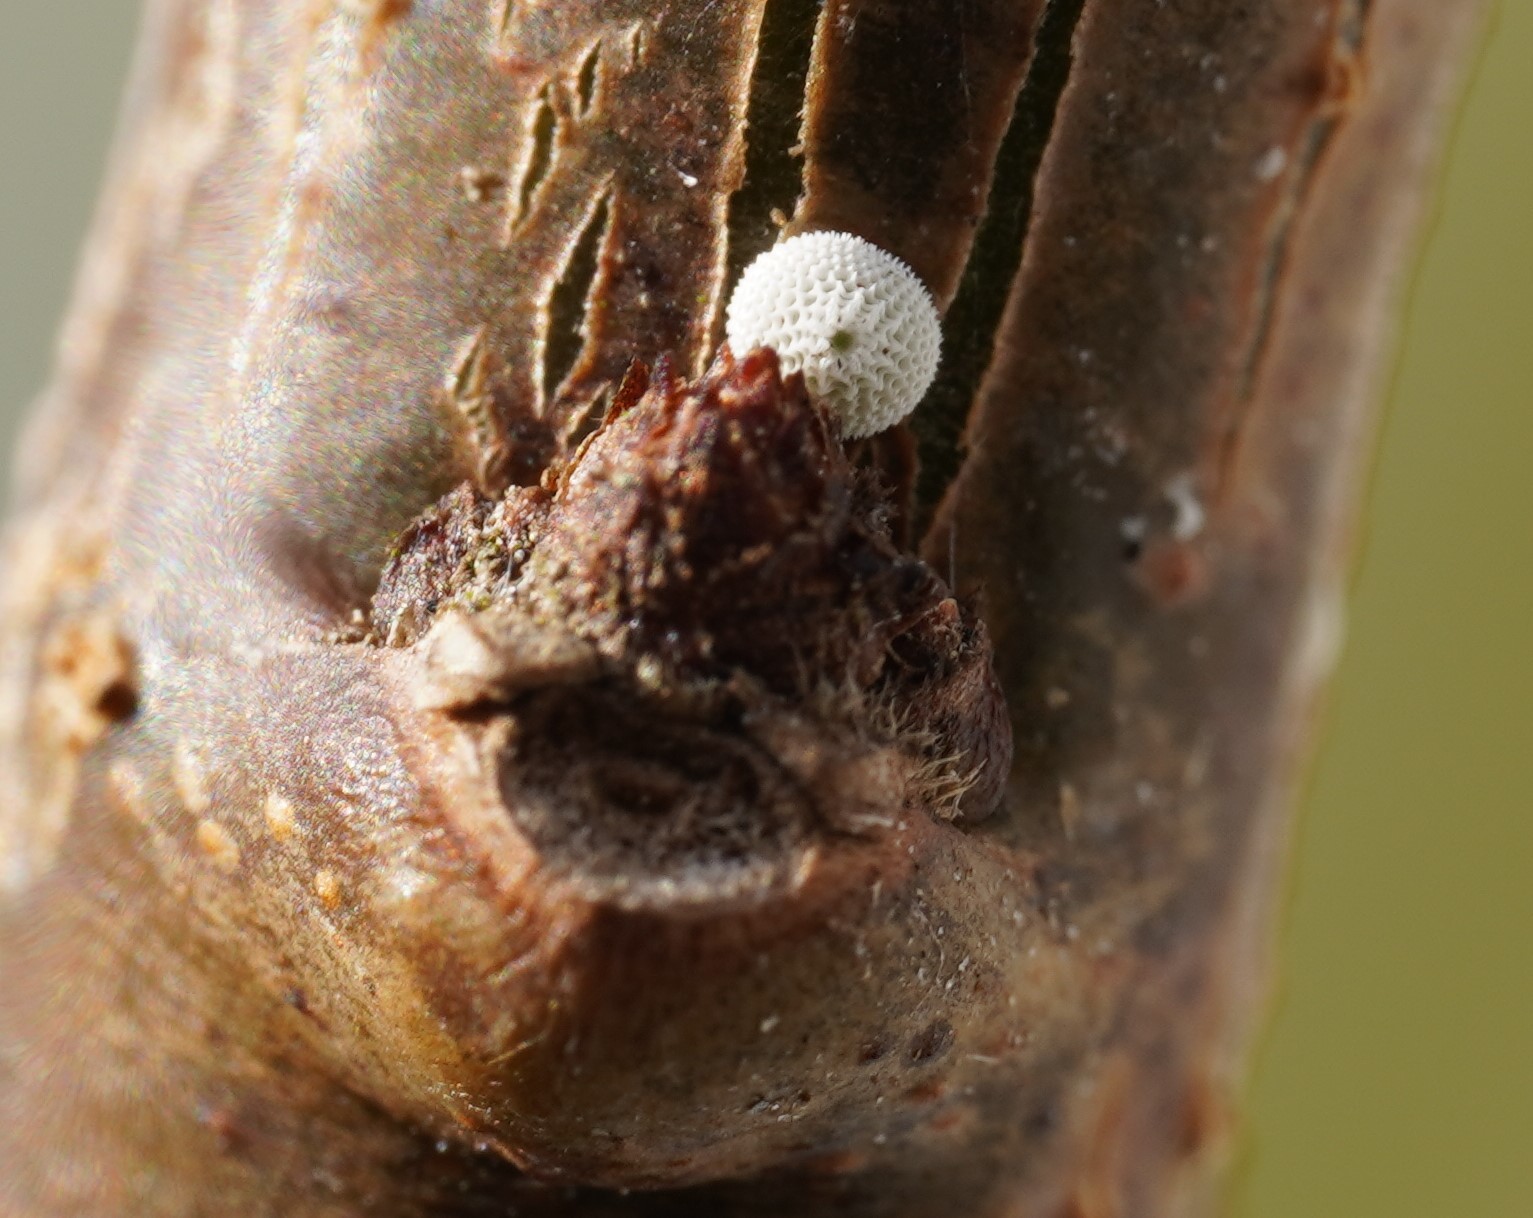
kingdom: Animalia
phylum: Arthropoda
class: Insecta
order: Lepidoptera
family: Lycaenidae
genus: Thecla
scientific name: Thecla betulae
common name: Brown hairstreak
